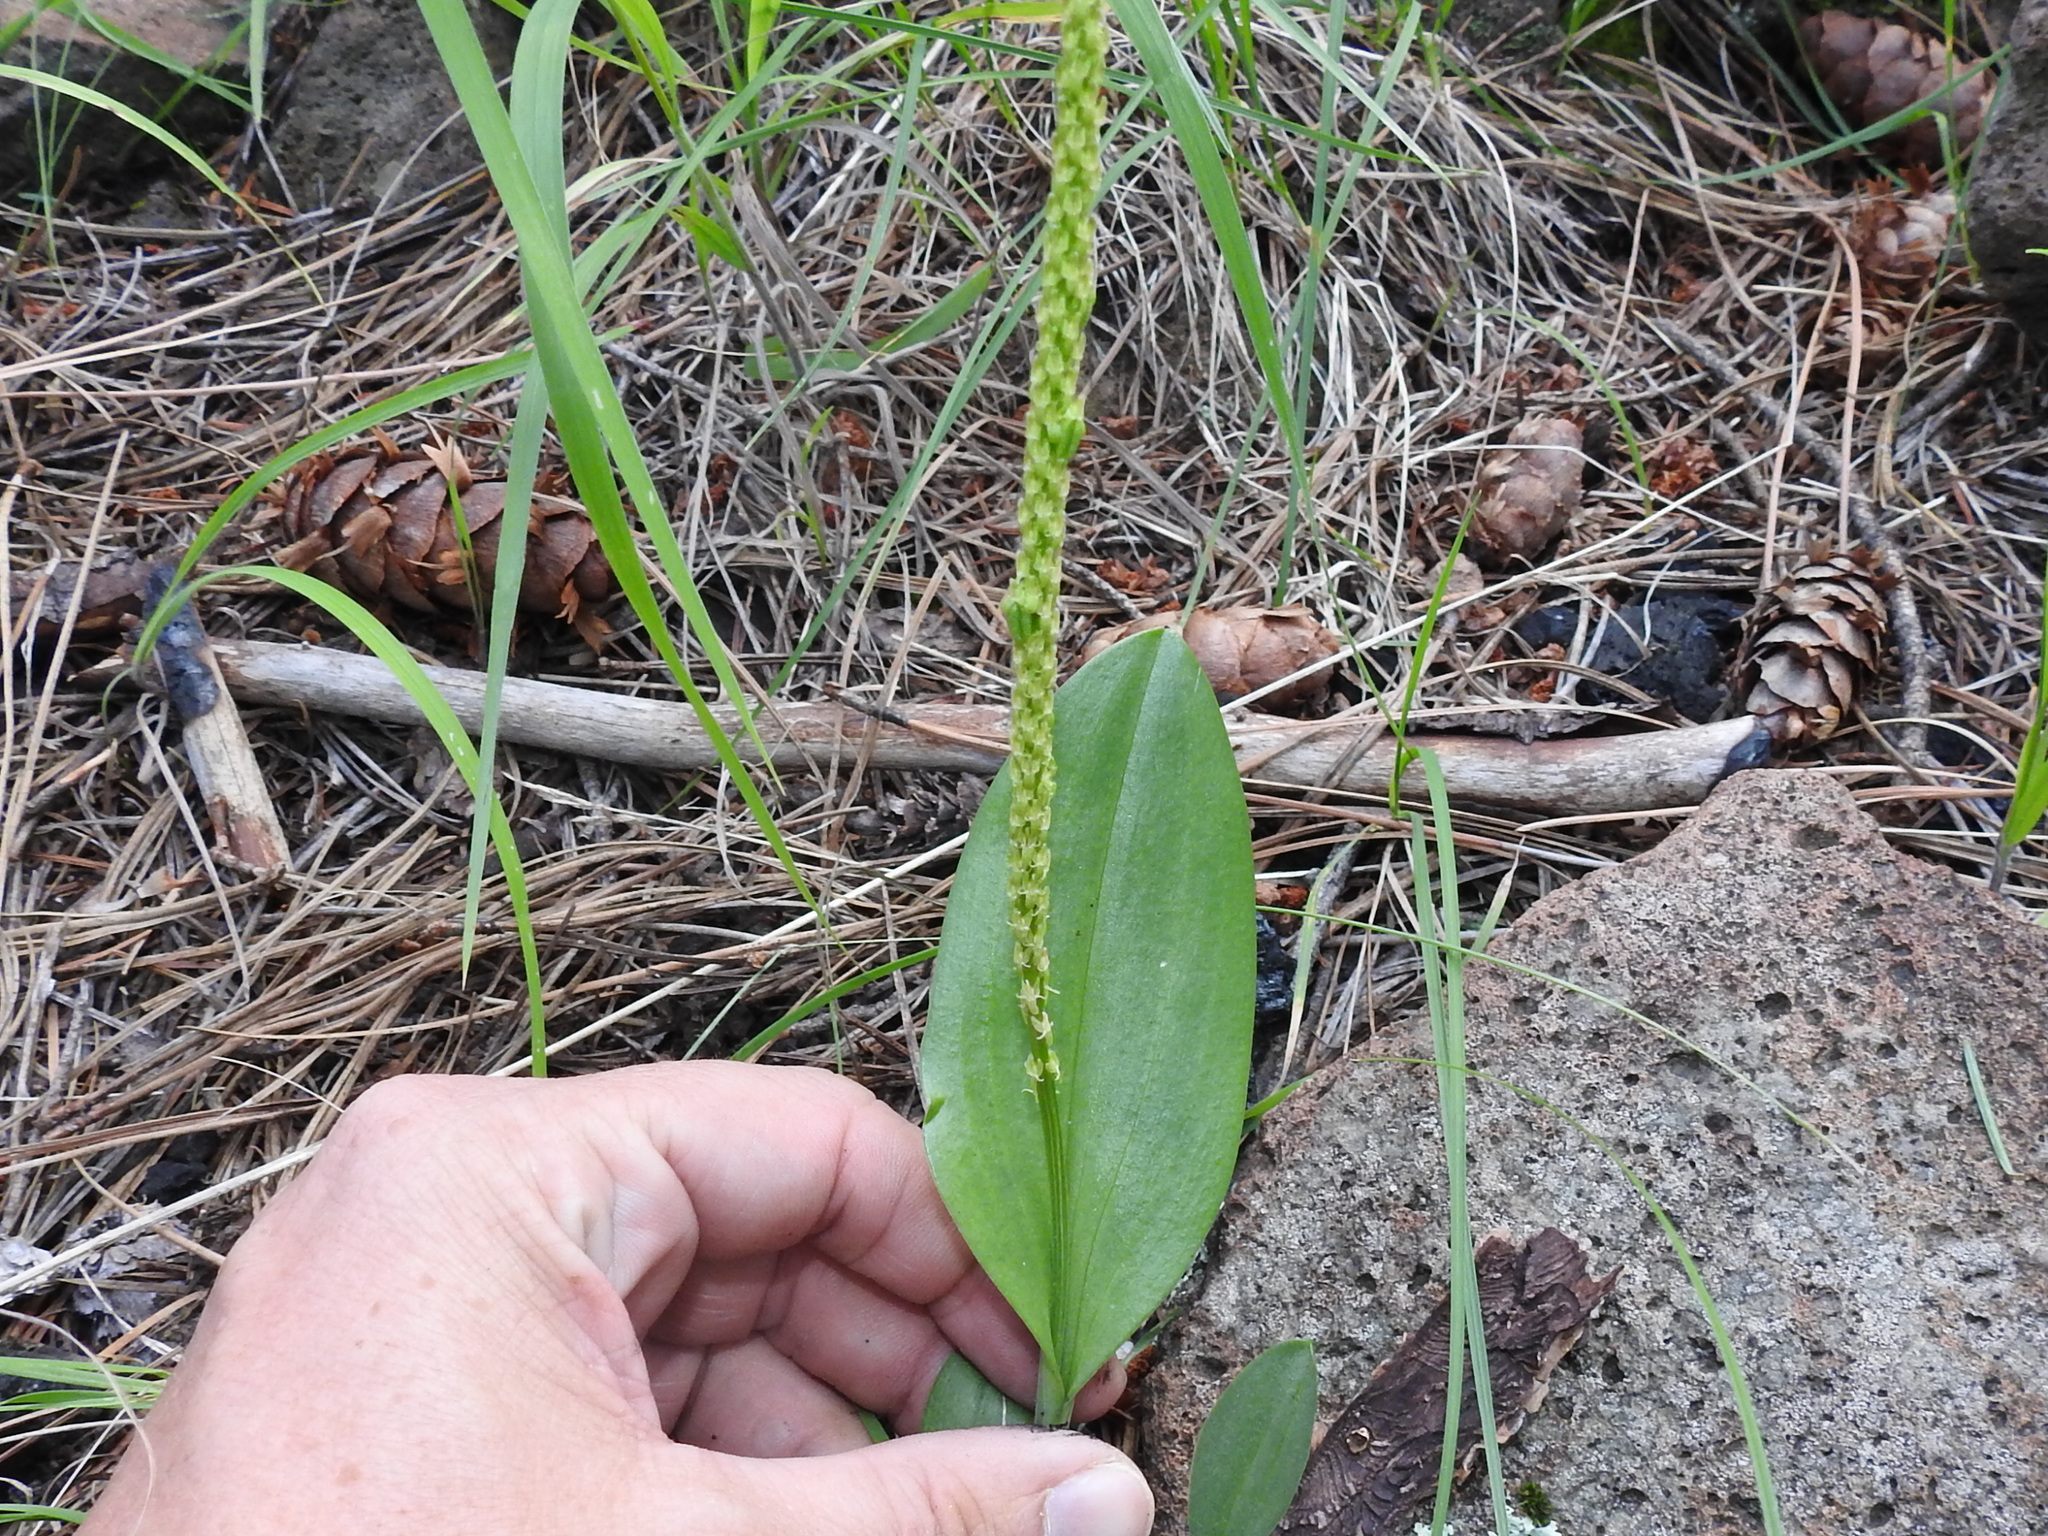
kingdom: Plantae
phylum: Tracheophyta
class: Liliopsida
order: Asparagales
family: Orchidaceae
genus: Malaxis
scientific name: Malaxis macrostachya
